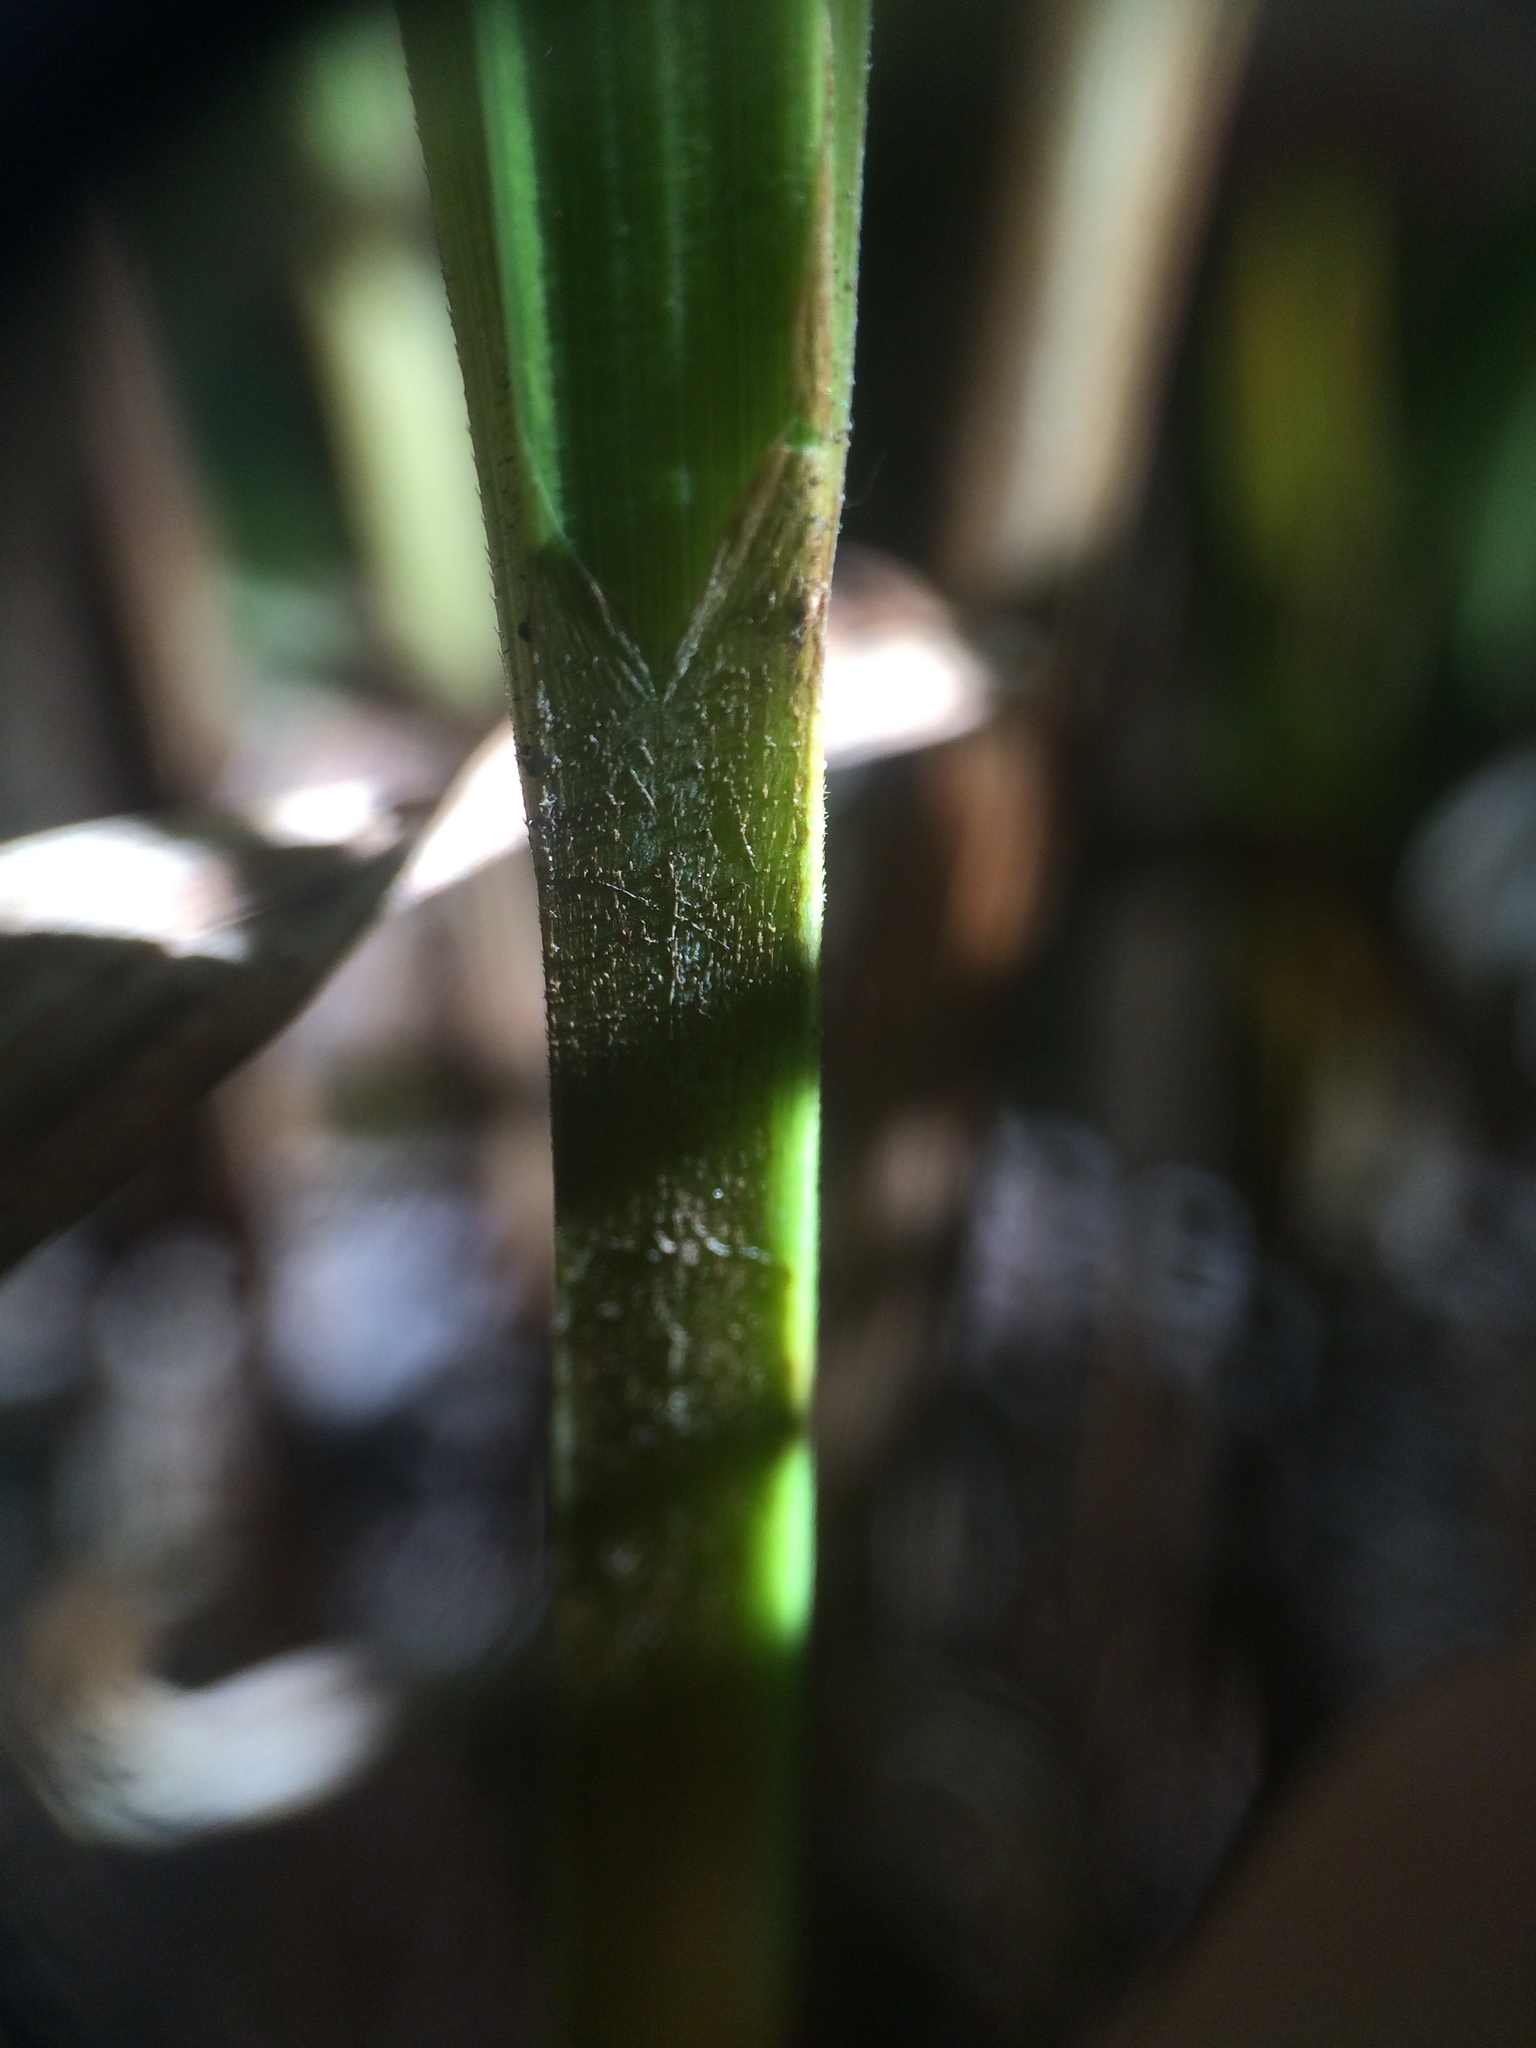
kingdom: Plantae
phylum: Tracheophyta
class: Liliopsida
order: Poales
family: Cyperaceae
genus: Carex
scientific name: Carex gynandra
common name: Nodding sedge
